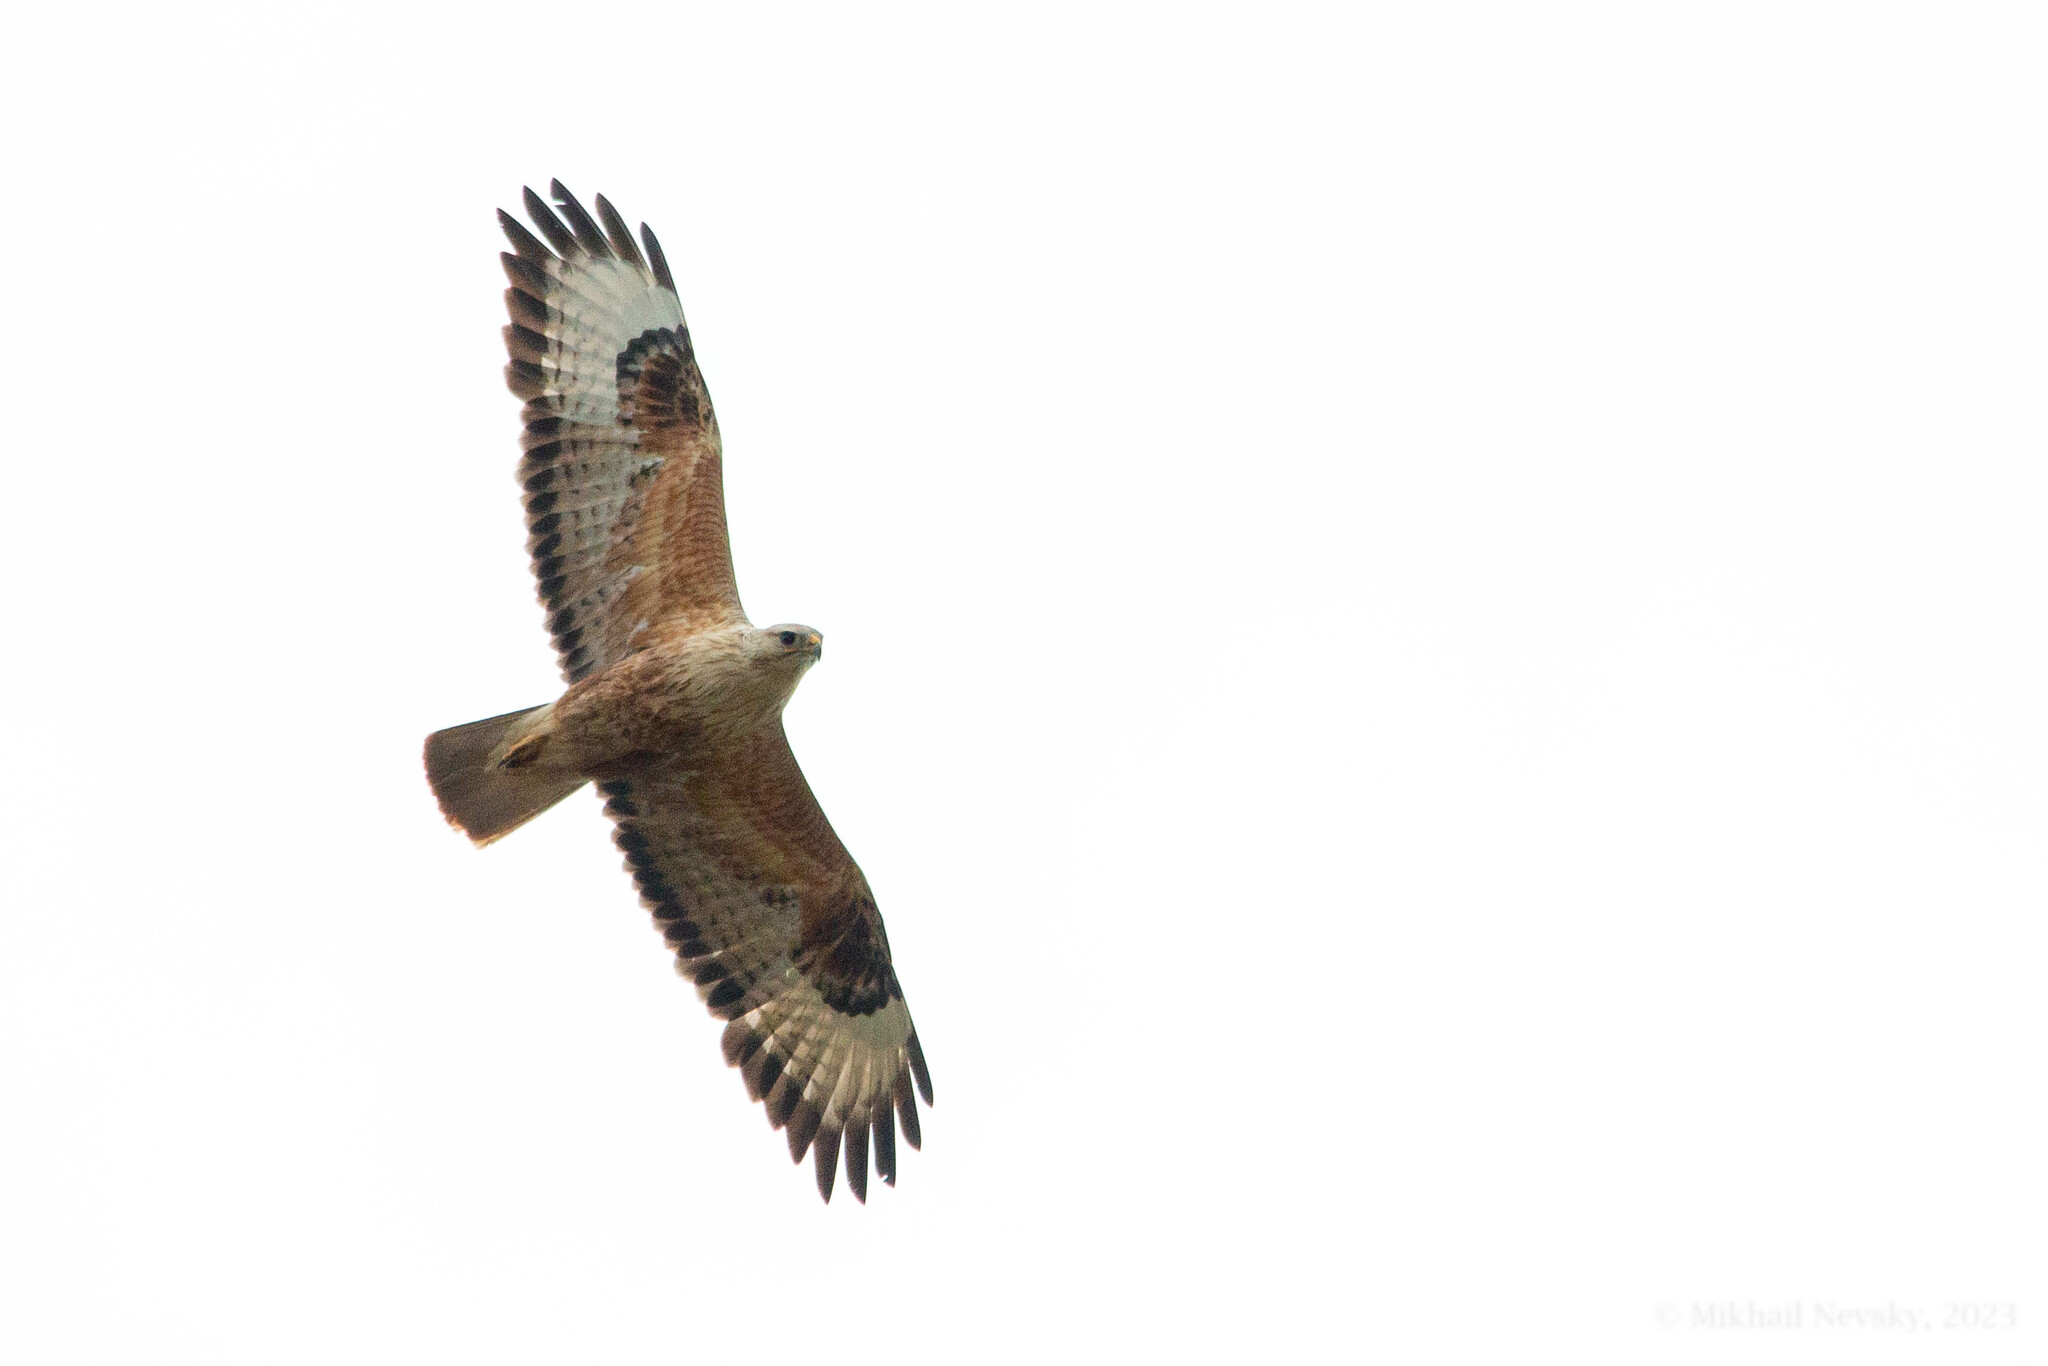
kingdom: Animalia
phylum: Chordata
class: Aves
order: Accipitriformes
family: Accipitridae
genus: Buteo
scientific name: Buteo rufinus
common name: Long-legged buzzard
